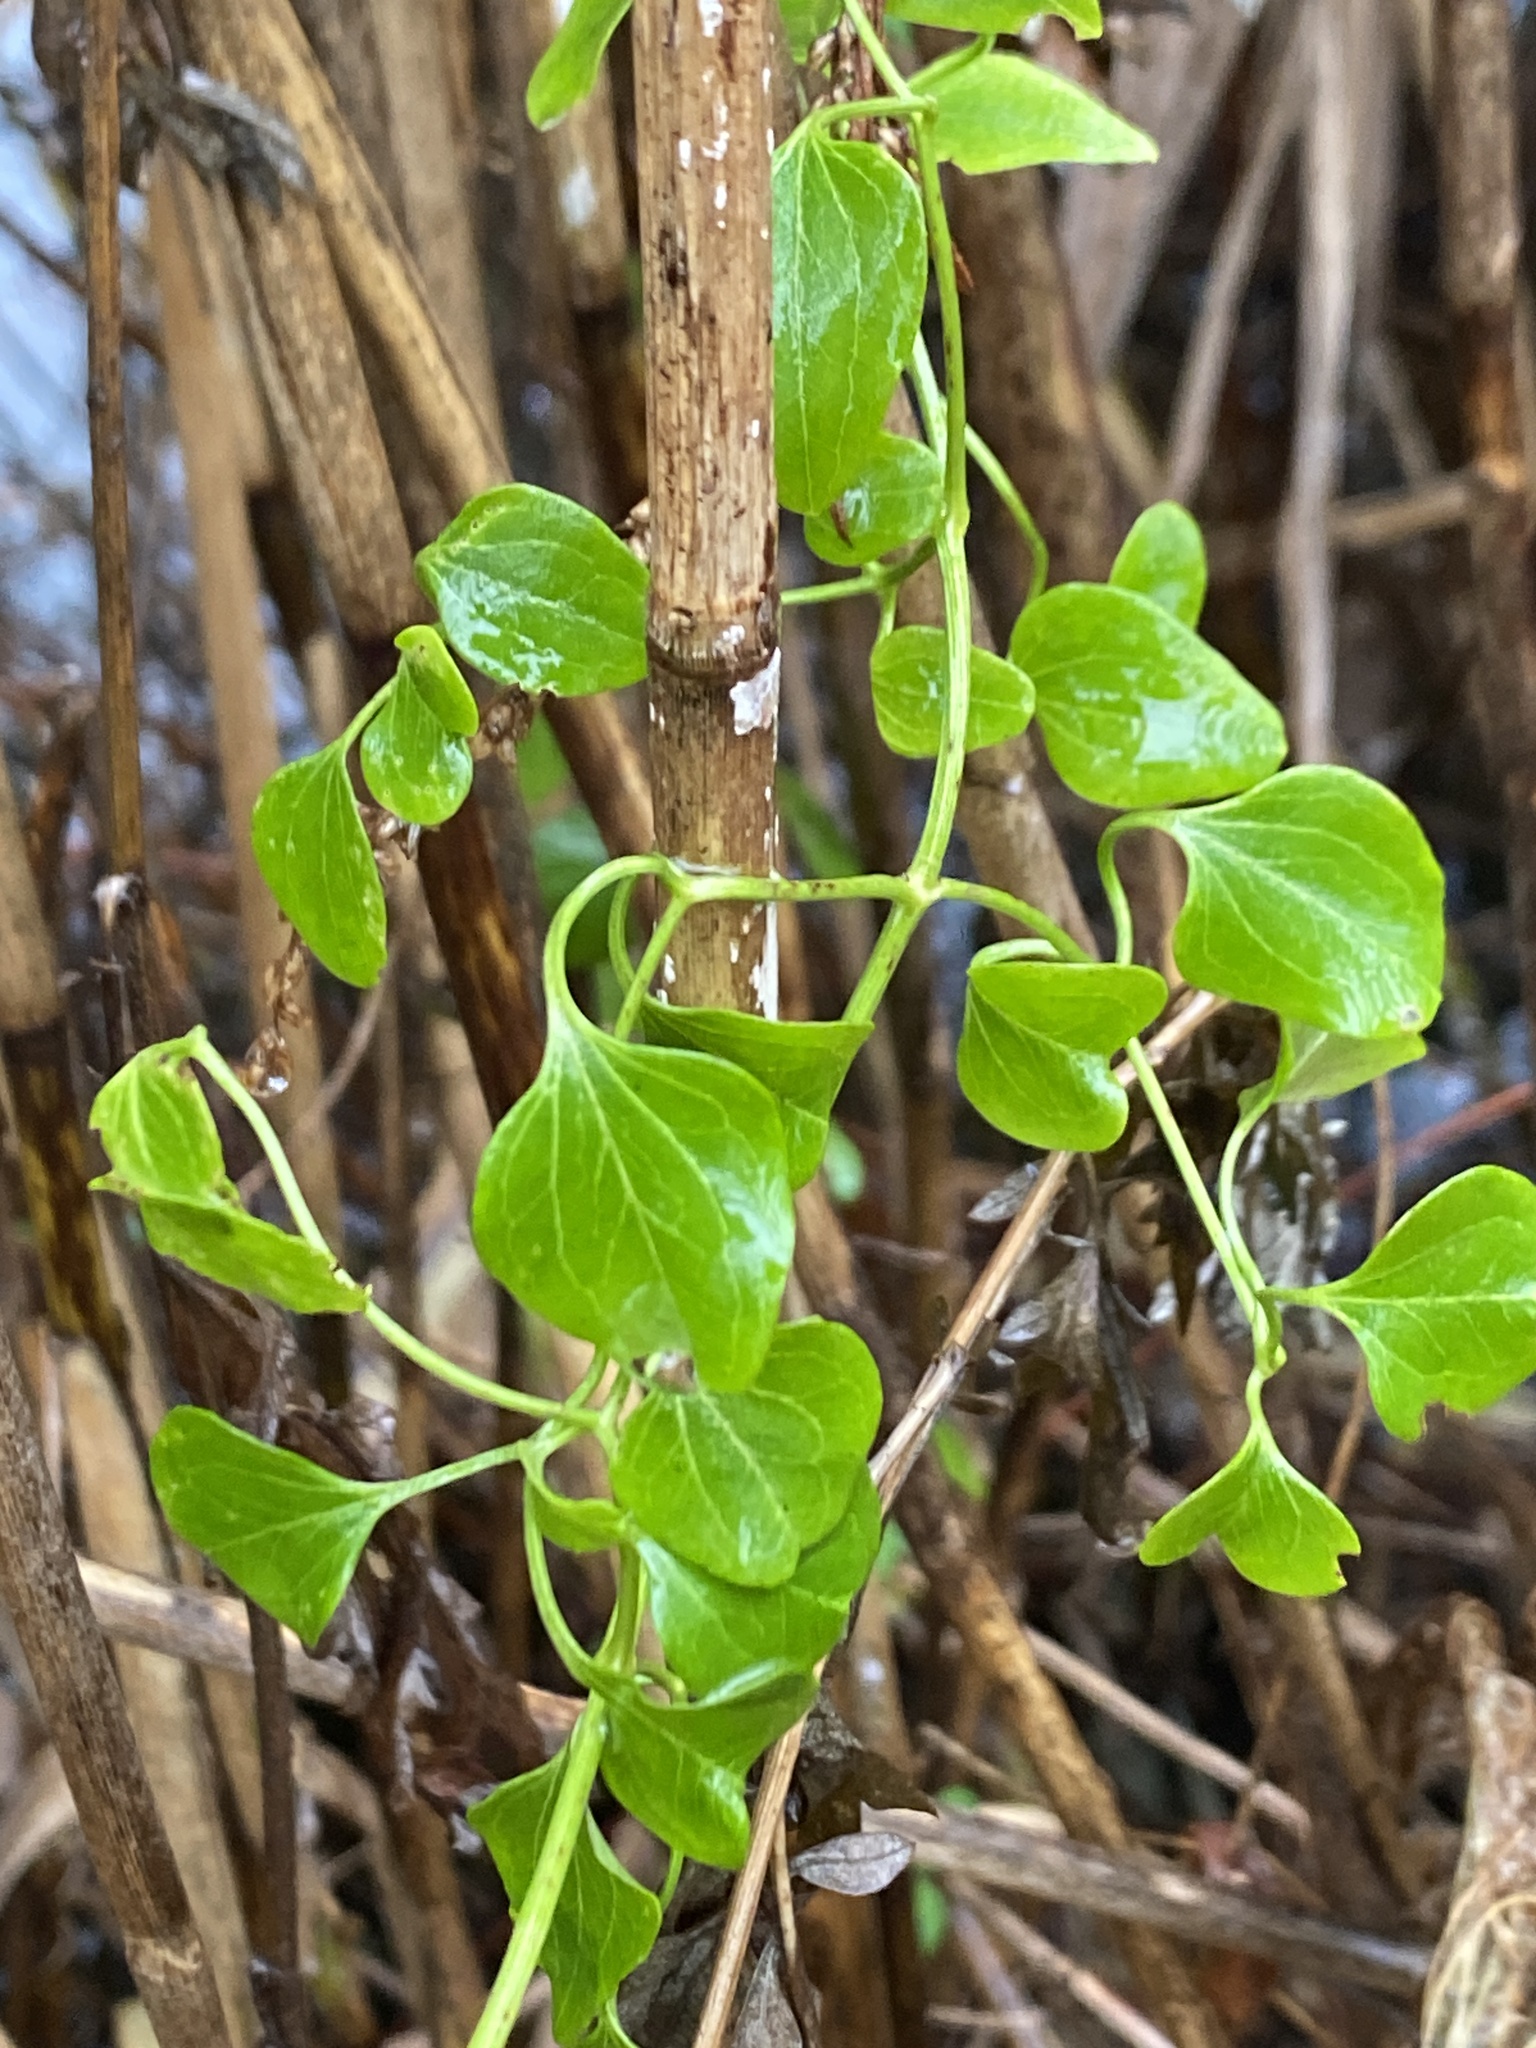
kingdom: Plantae
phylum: Tracheophyta
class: Magnoliopsida
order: Ranunculales
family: Ranunculaceae
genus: Clematis
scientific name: Clematis terniflora
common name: Sweet autumn clematis
